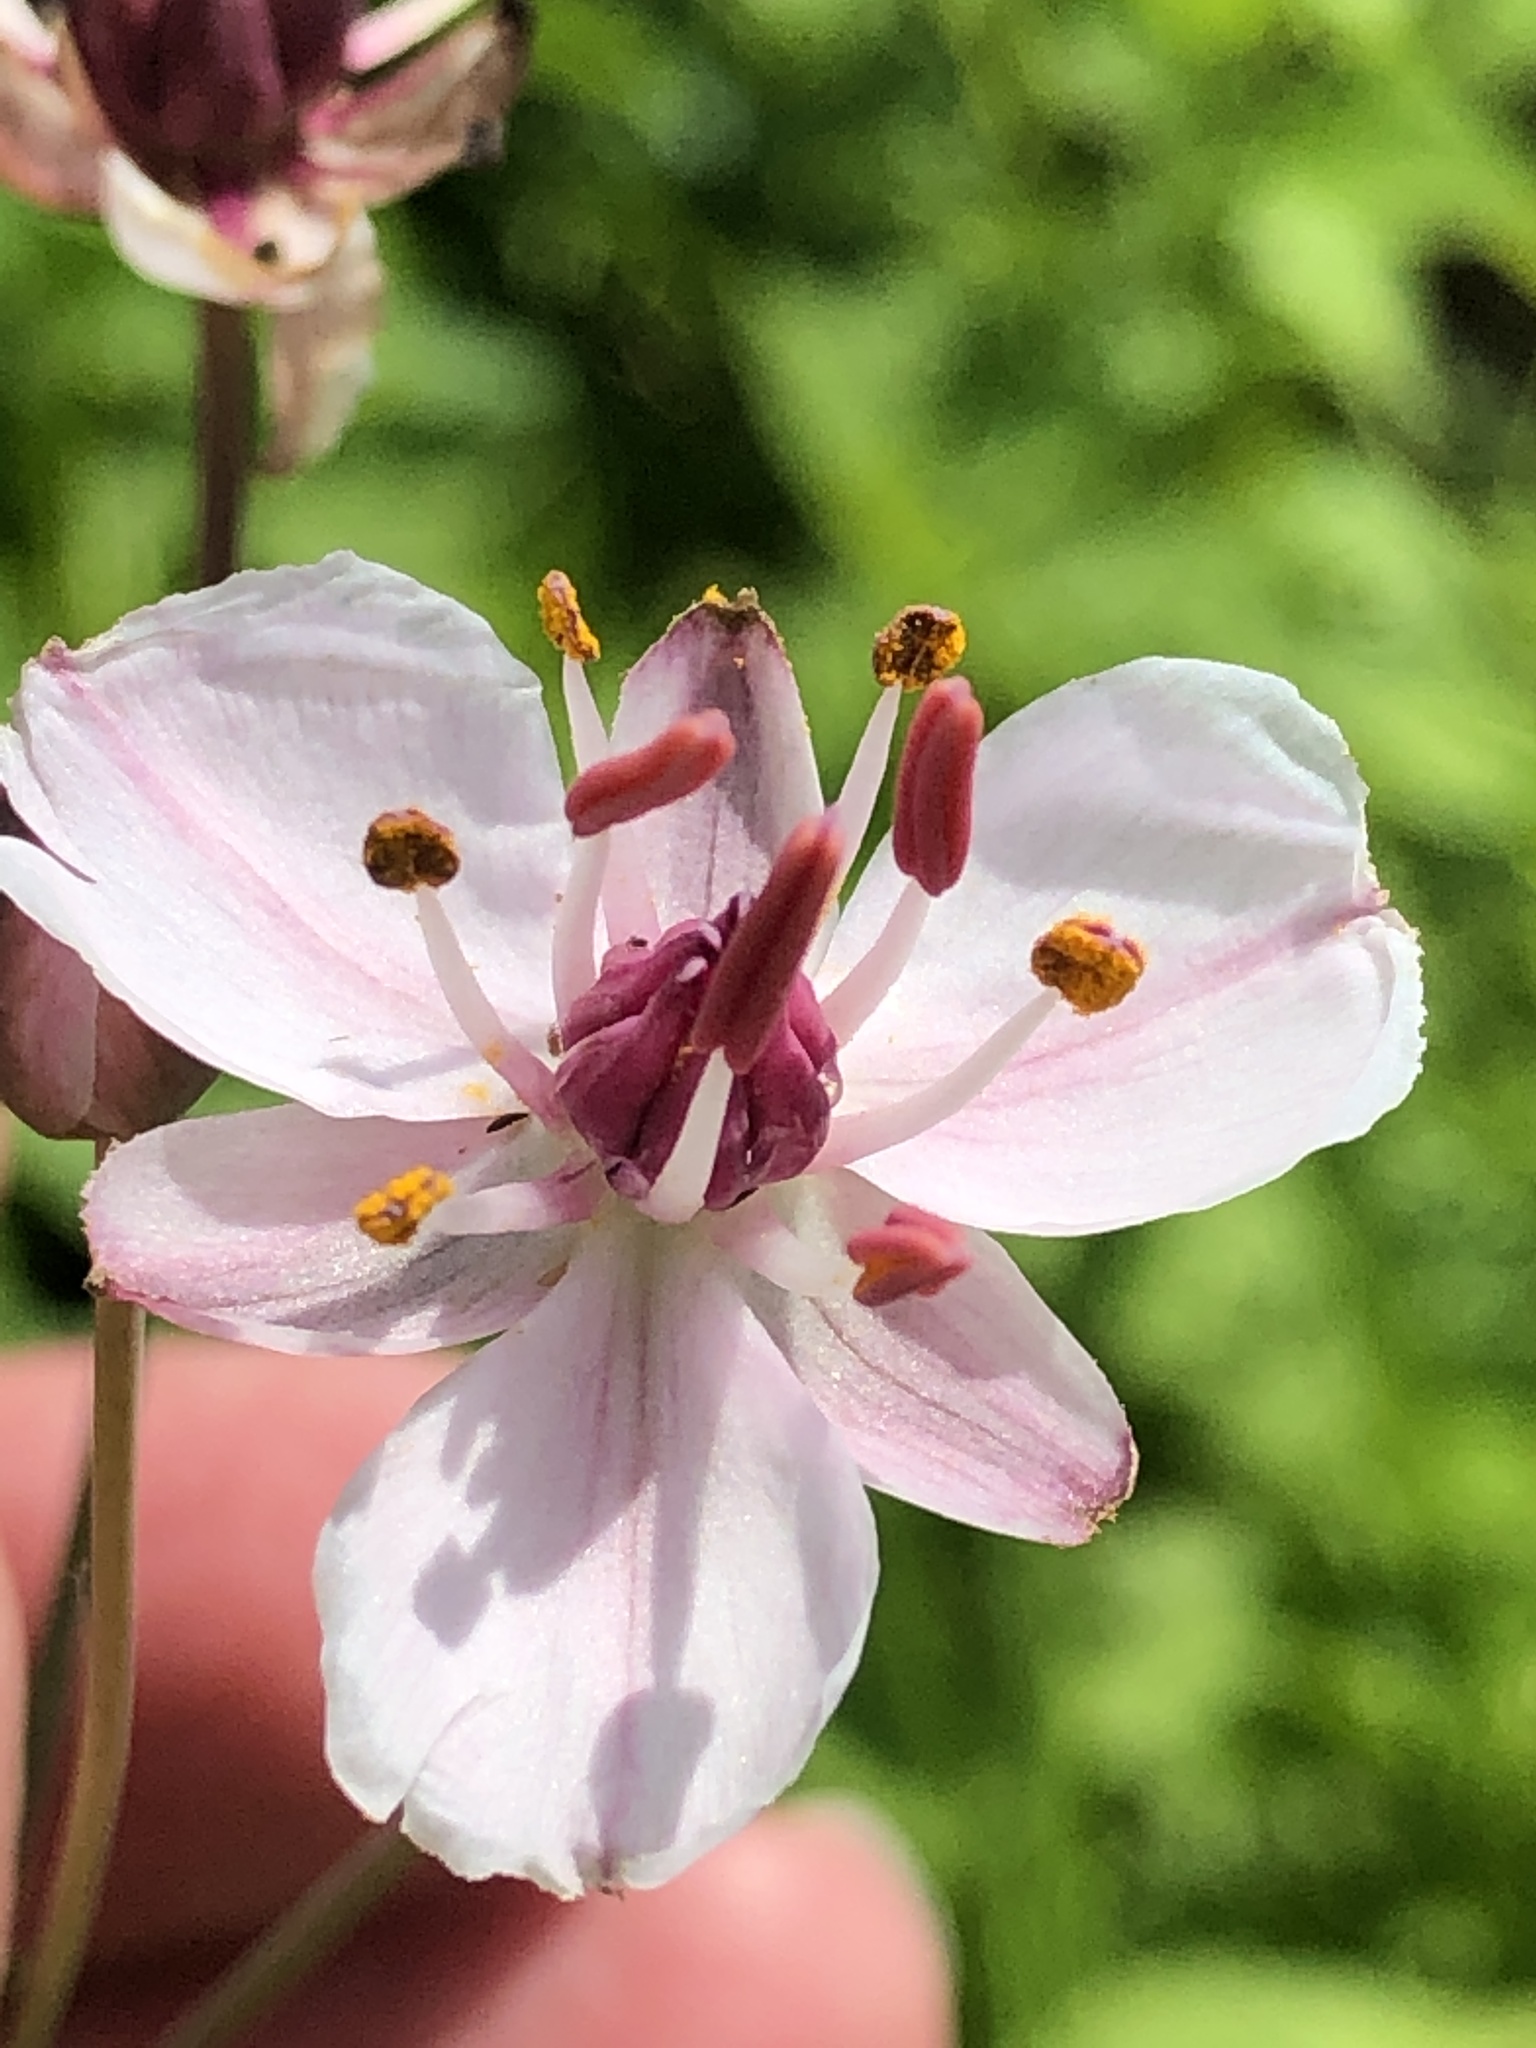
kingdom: Plantae
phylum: Tracheophyta
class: Liliopsida
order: Alismatales
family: Butomaceae
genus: Butomus
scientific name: Butomus umbellatus
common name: Flowering-rush
